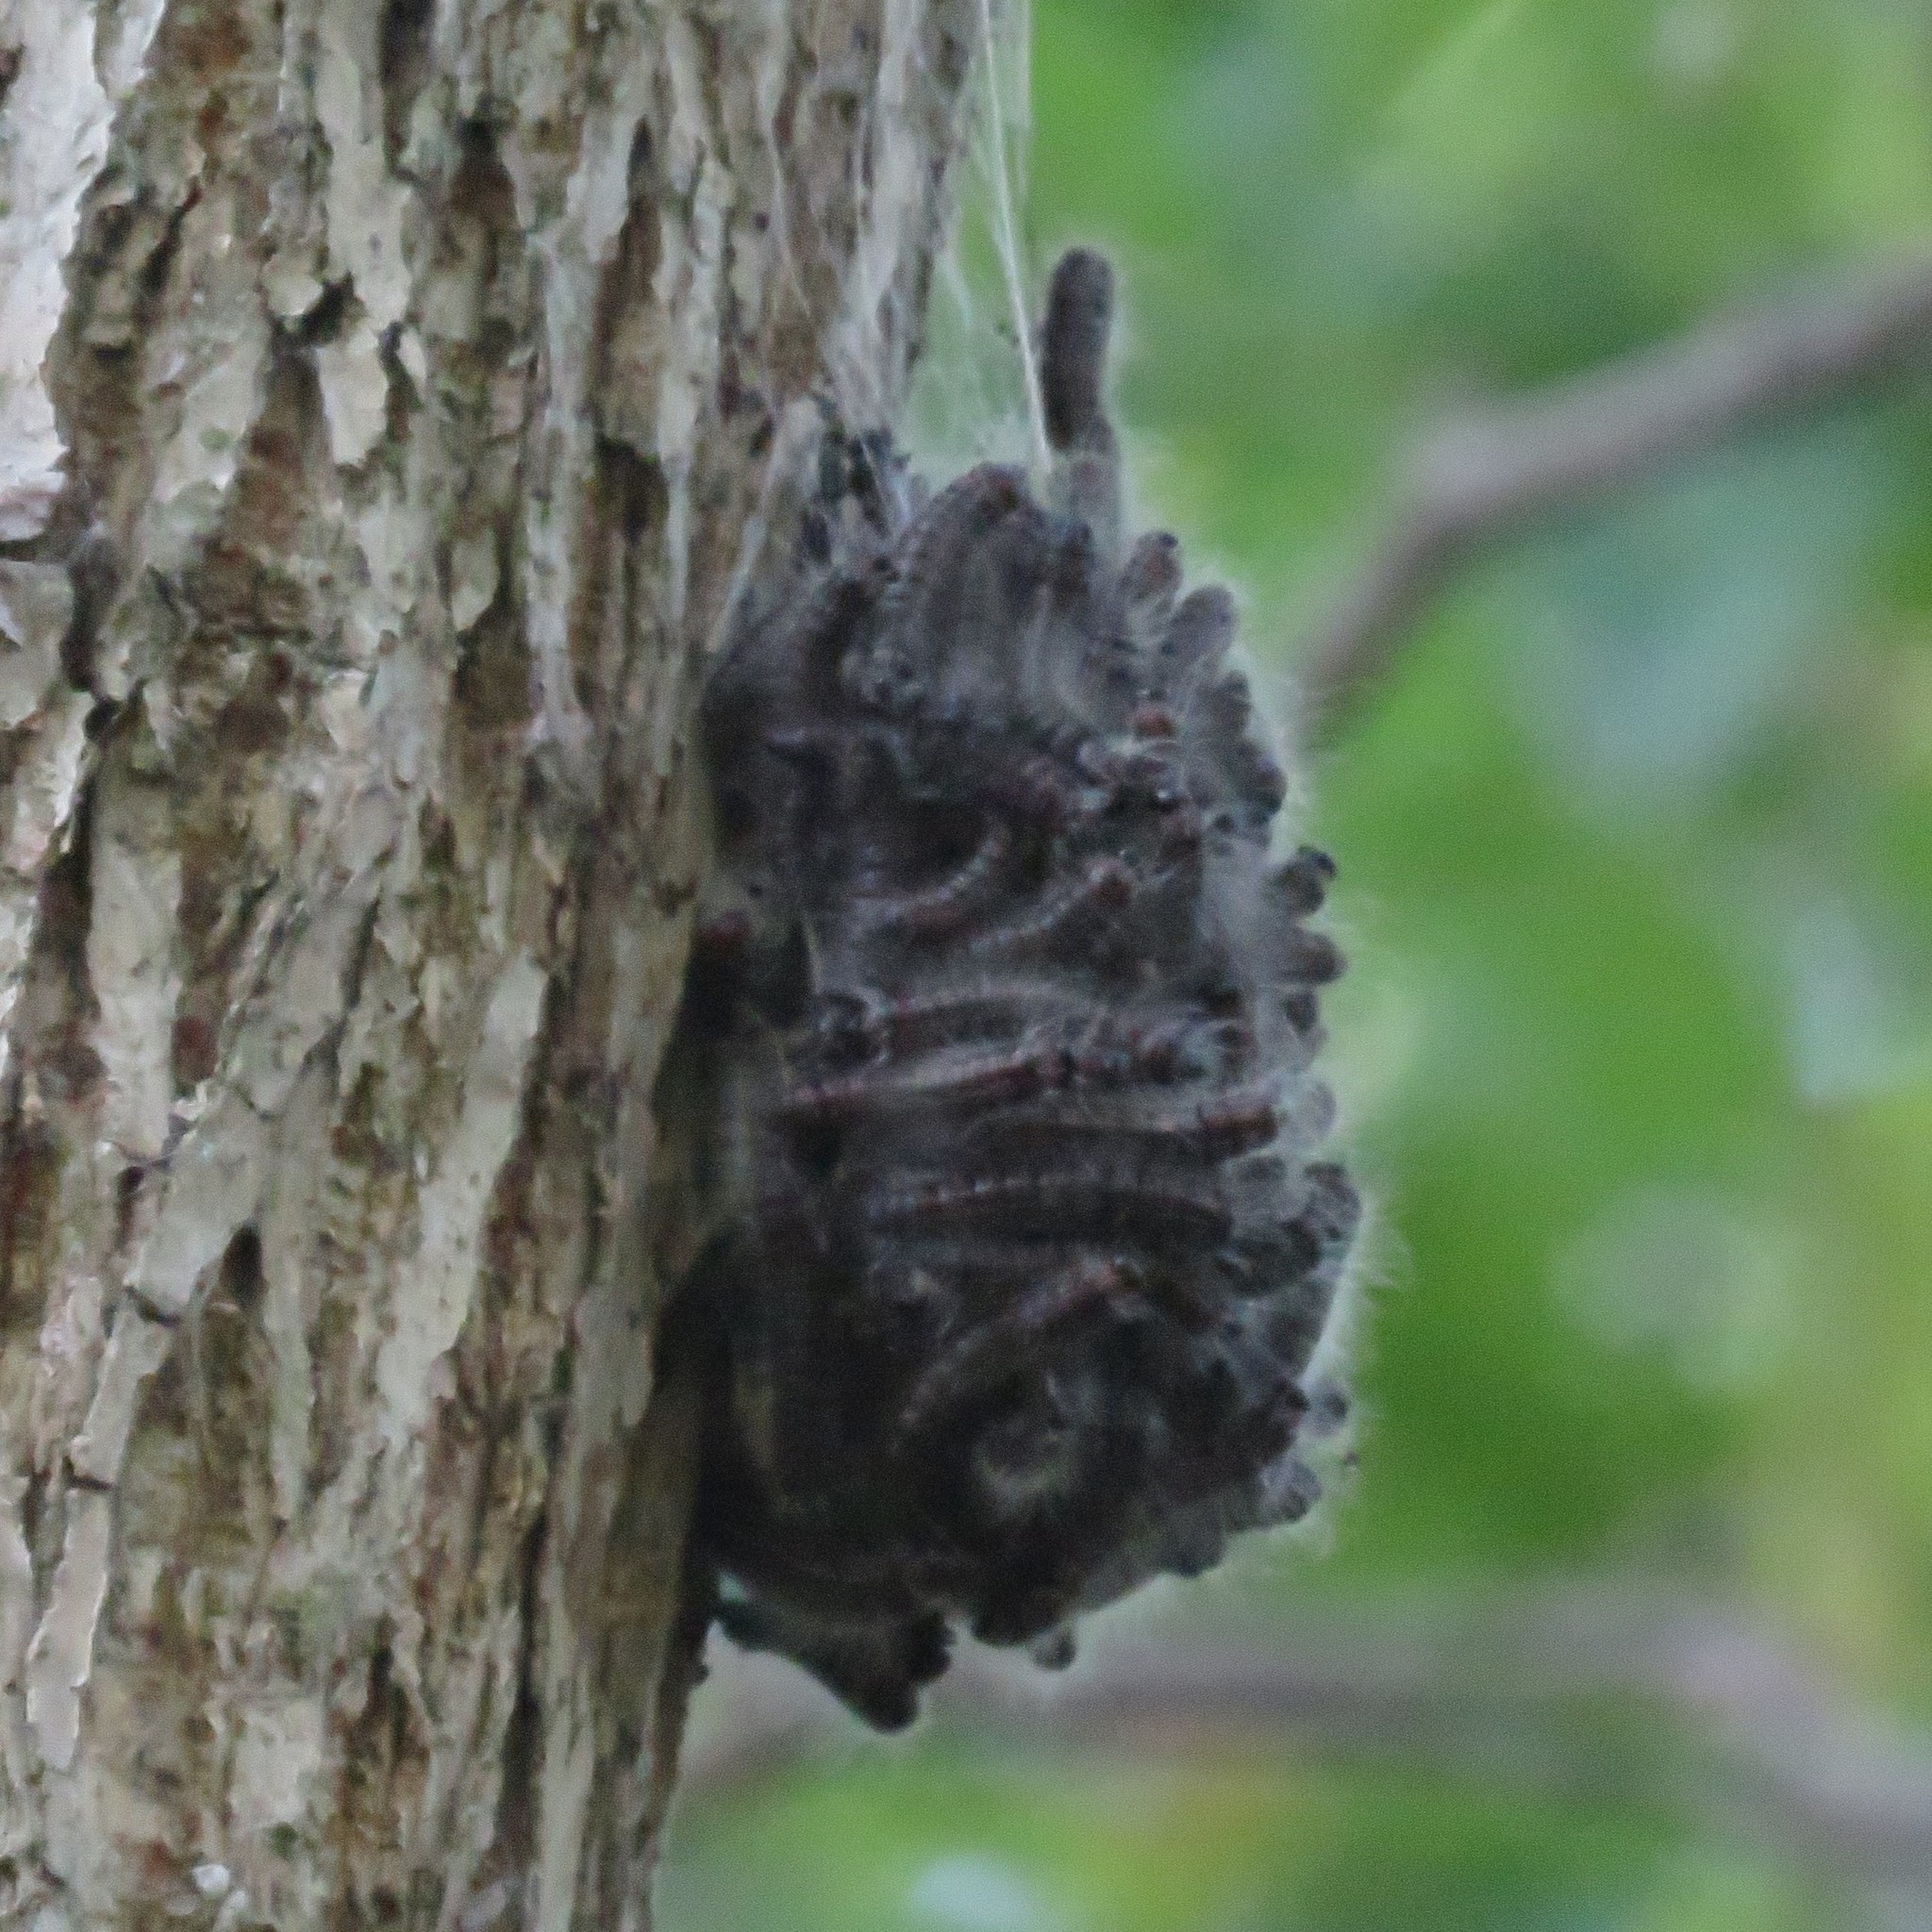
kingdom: Animalia
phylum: Arthropoda
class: Insecta
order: Lepidoptera
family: Notodontidae
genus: Datana
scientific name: Datana integerrima
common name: Walnut caterpillar
